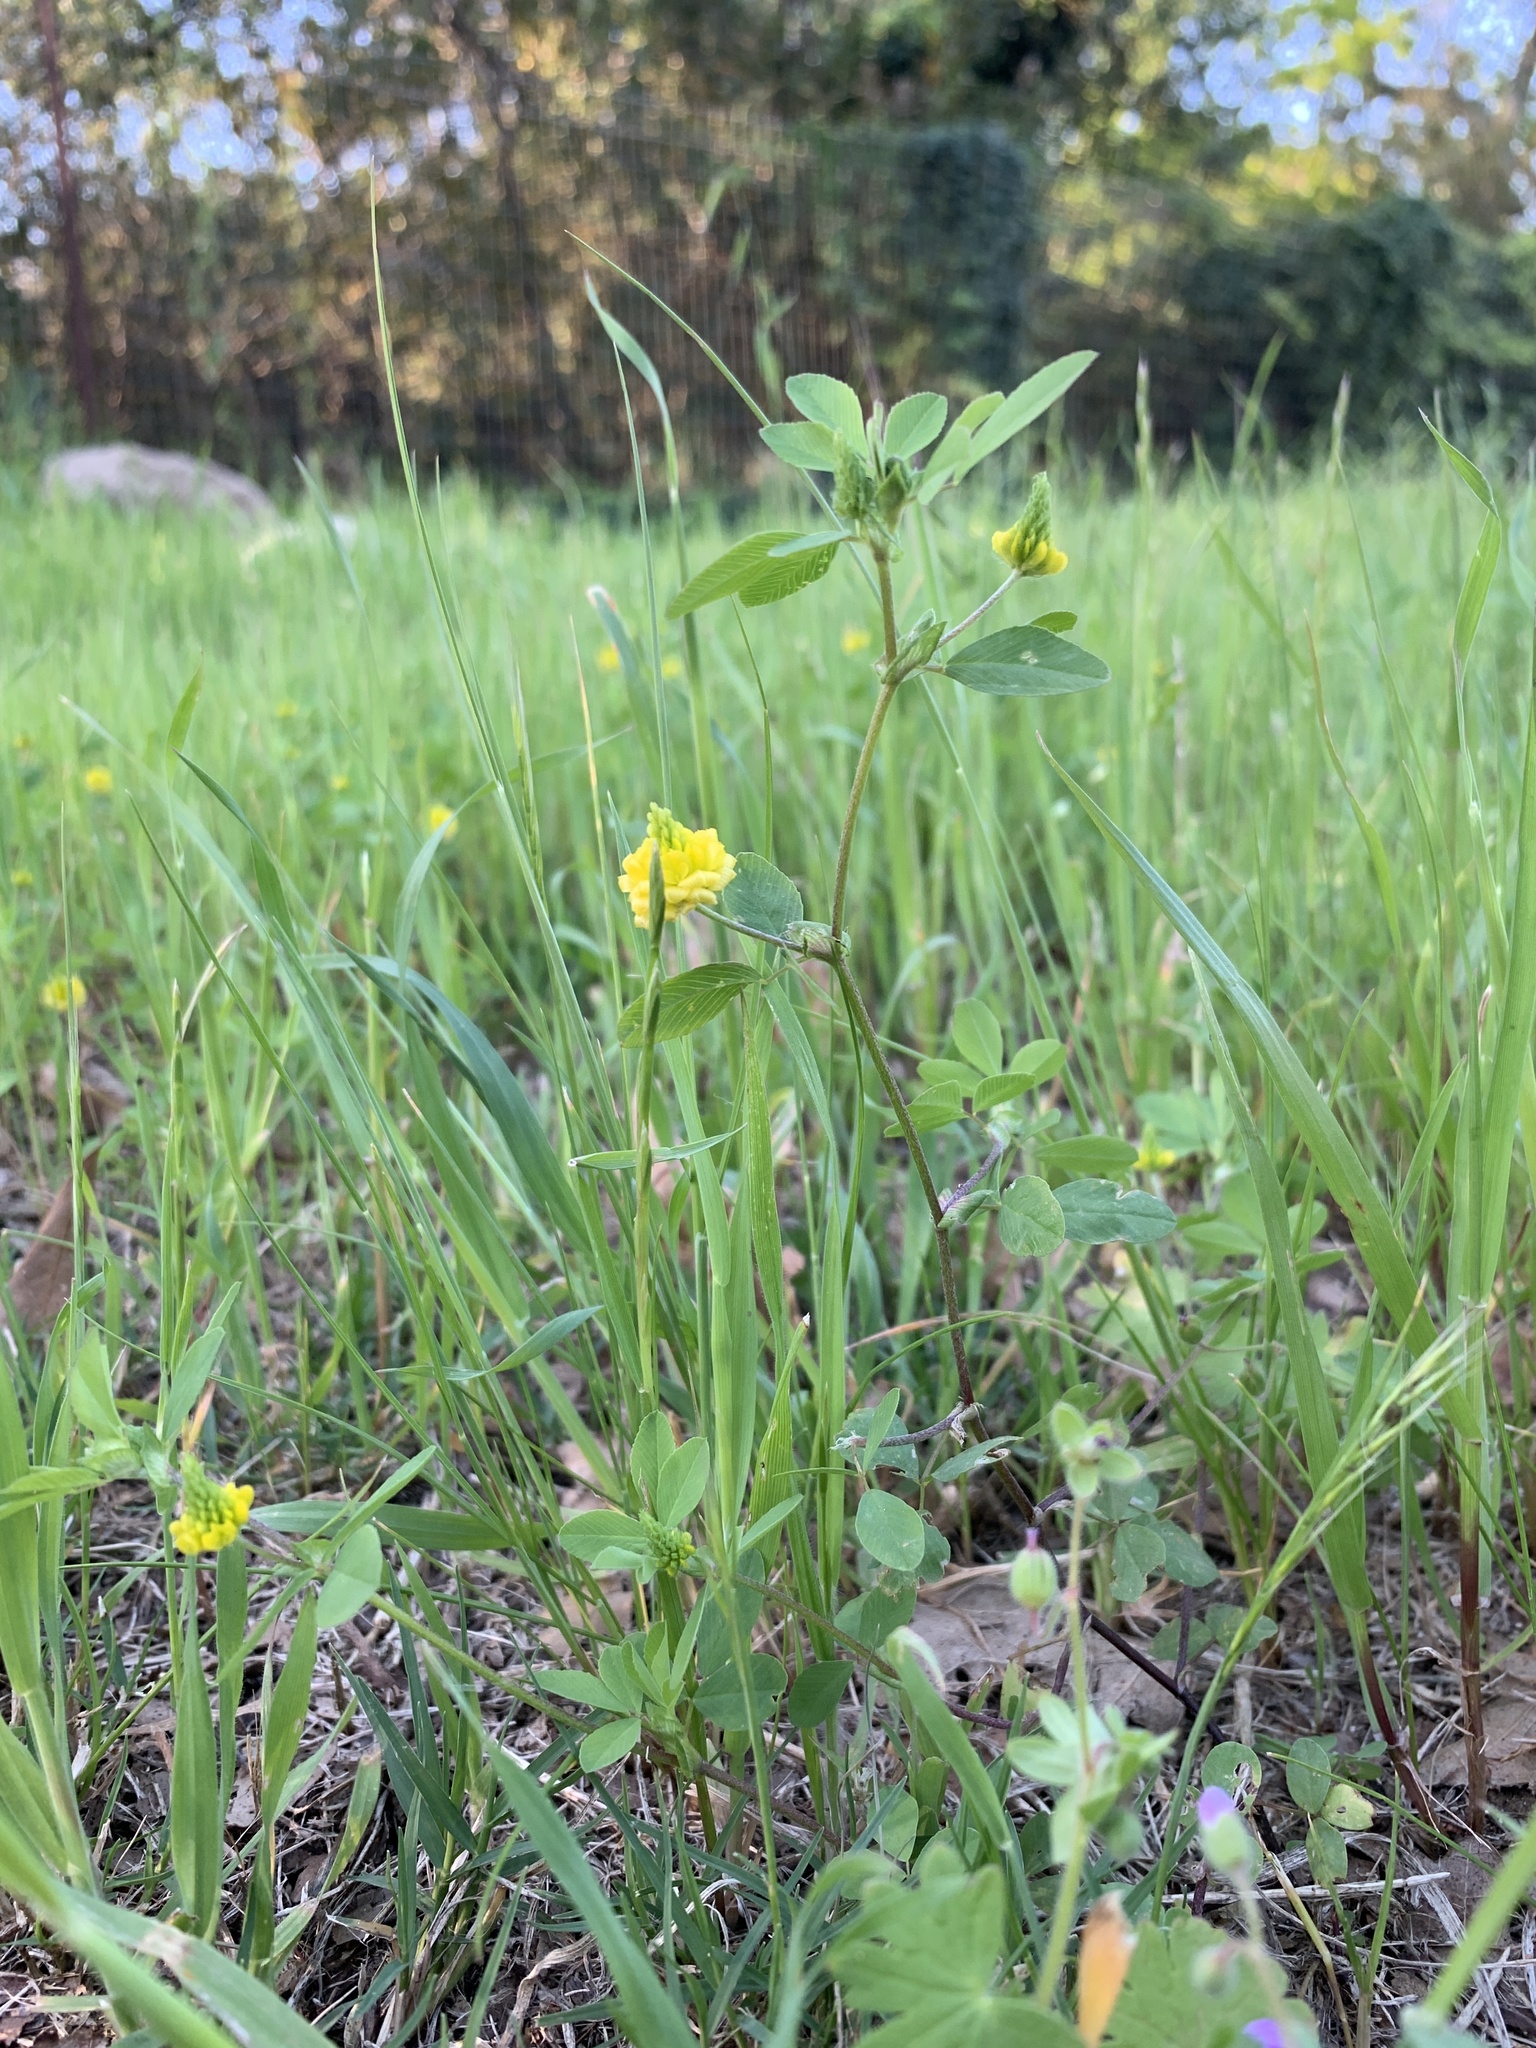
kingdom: Plantae
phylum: Tracheophyta
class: Magnoliopsida
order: Fabales
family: Fabaceae
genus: Trifolium
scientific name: Trifolium campestre
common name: Field clover
